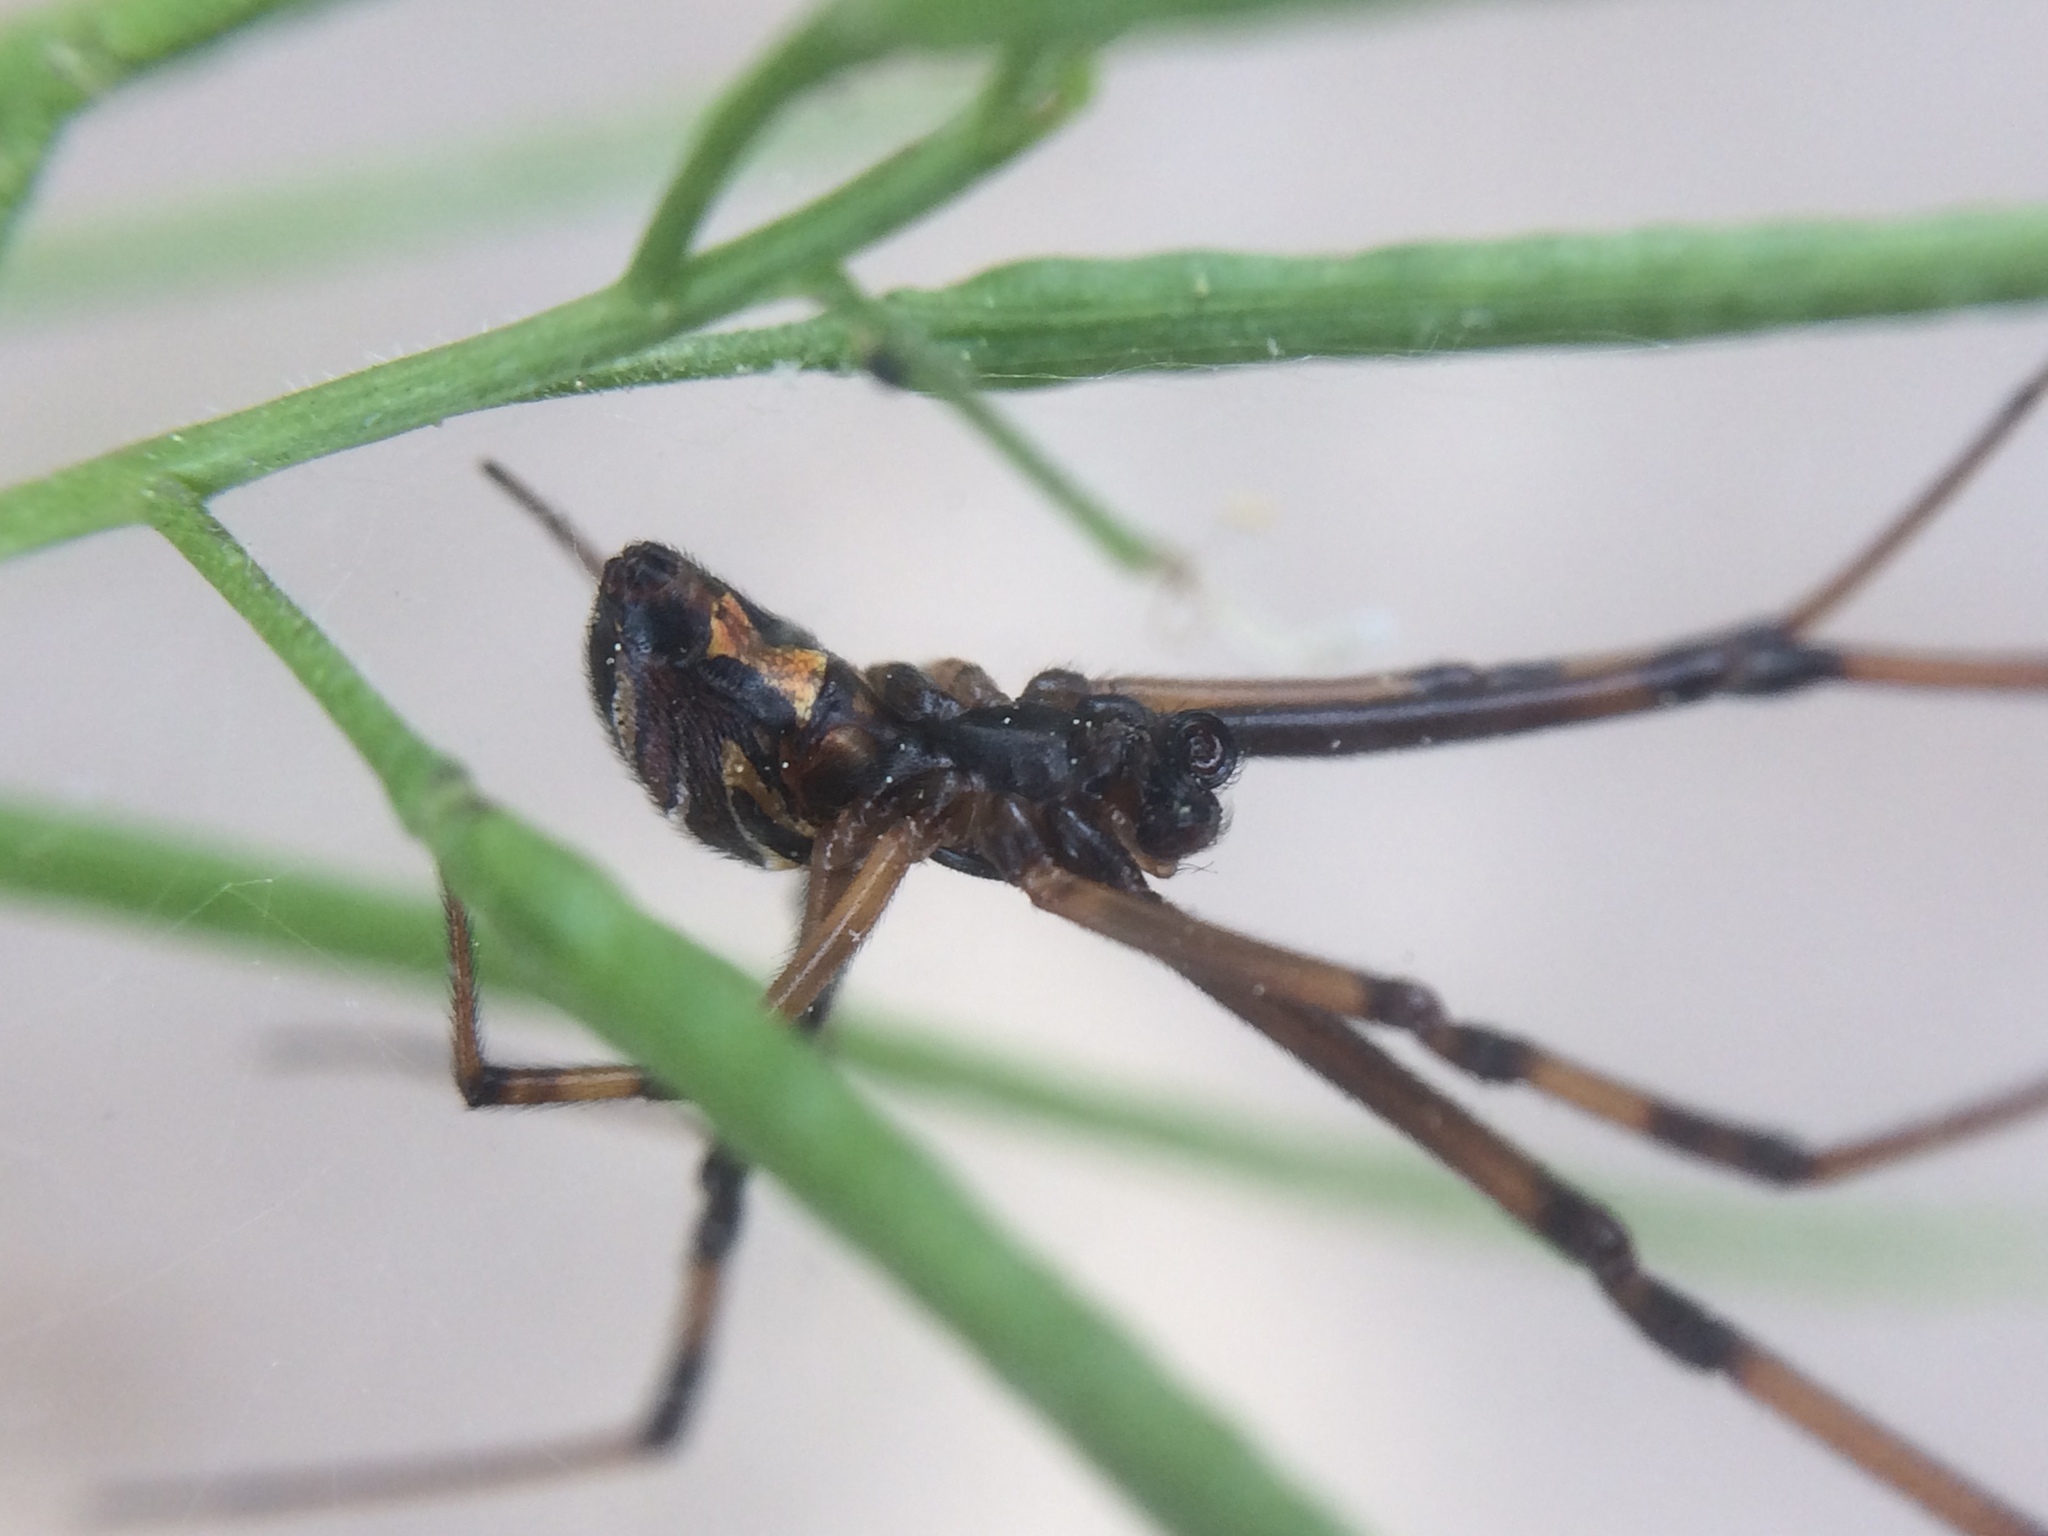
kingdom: Animalia
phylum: Arthropoda
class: Arachnida
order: Araneae
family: Theridiidae
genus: Latrodectus
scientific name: Latrodectus hesperus
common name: Western black widow
